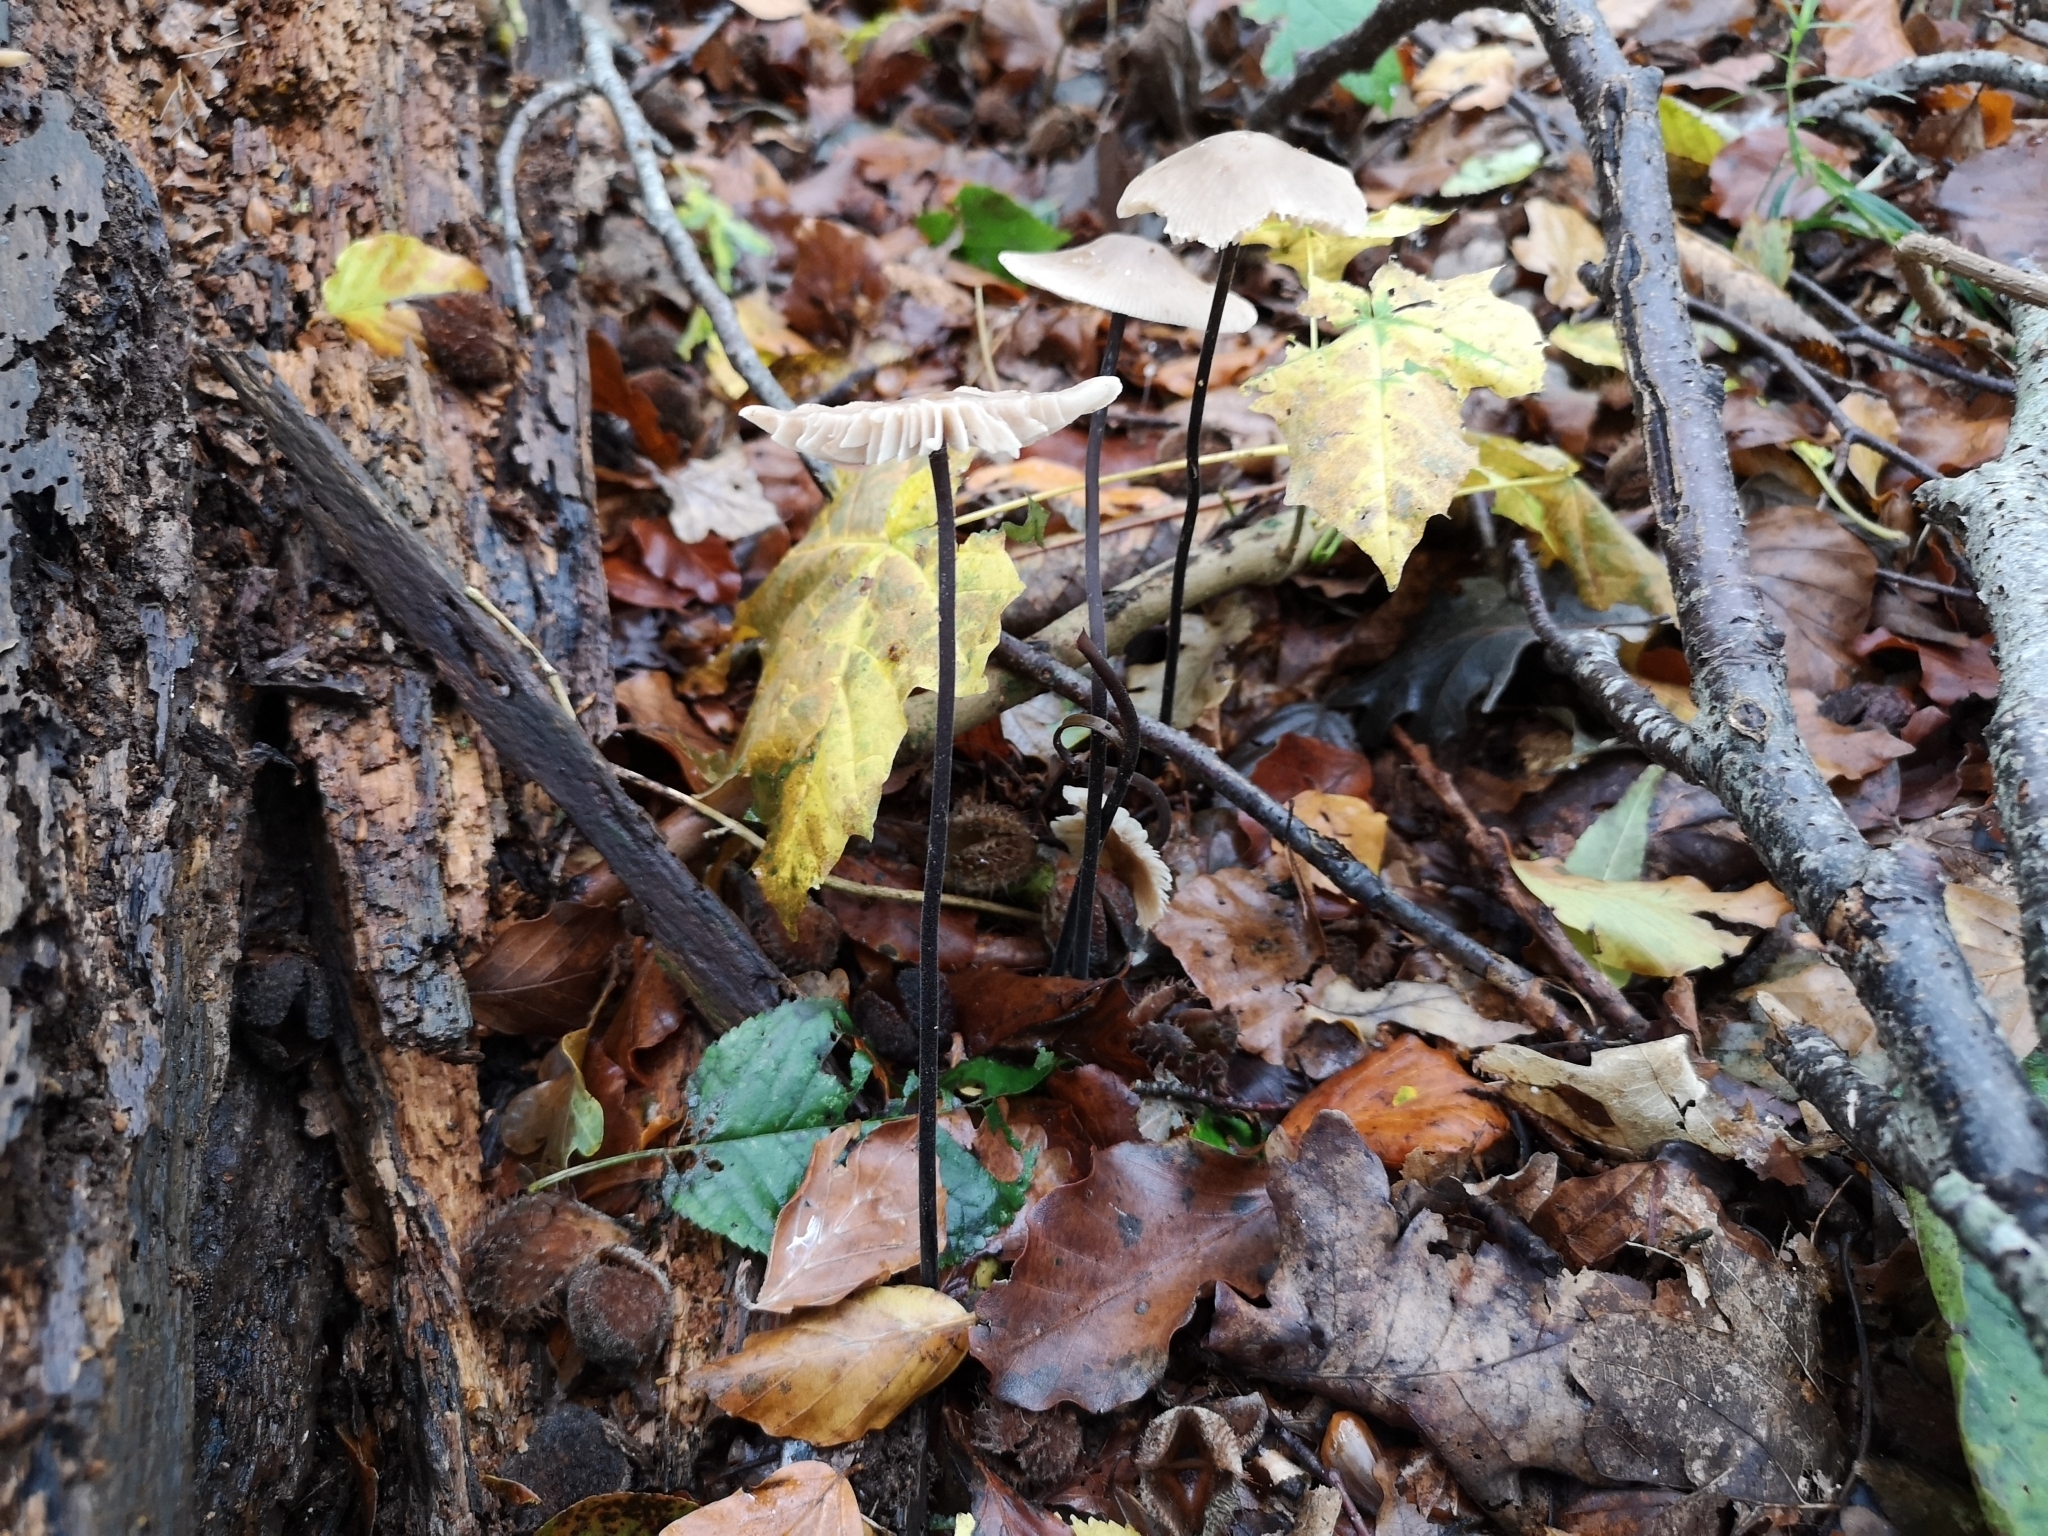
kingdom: Fungi
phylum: Basidiomycota
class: Agaricomycetes
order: Agaricales
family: Omphalotaceae
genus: Mycetinis
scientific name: Mycetinis alliaceus
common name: Garlic parachute
